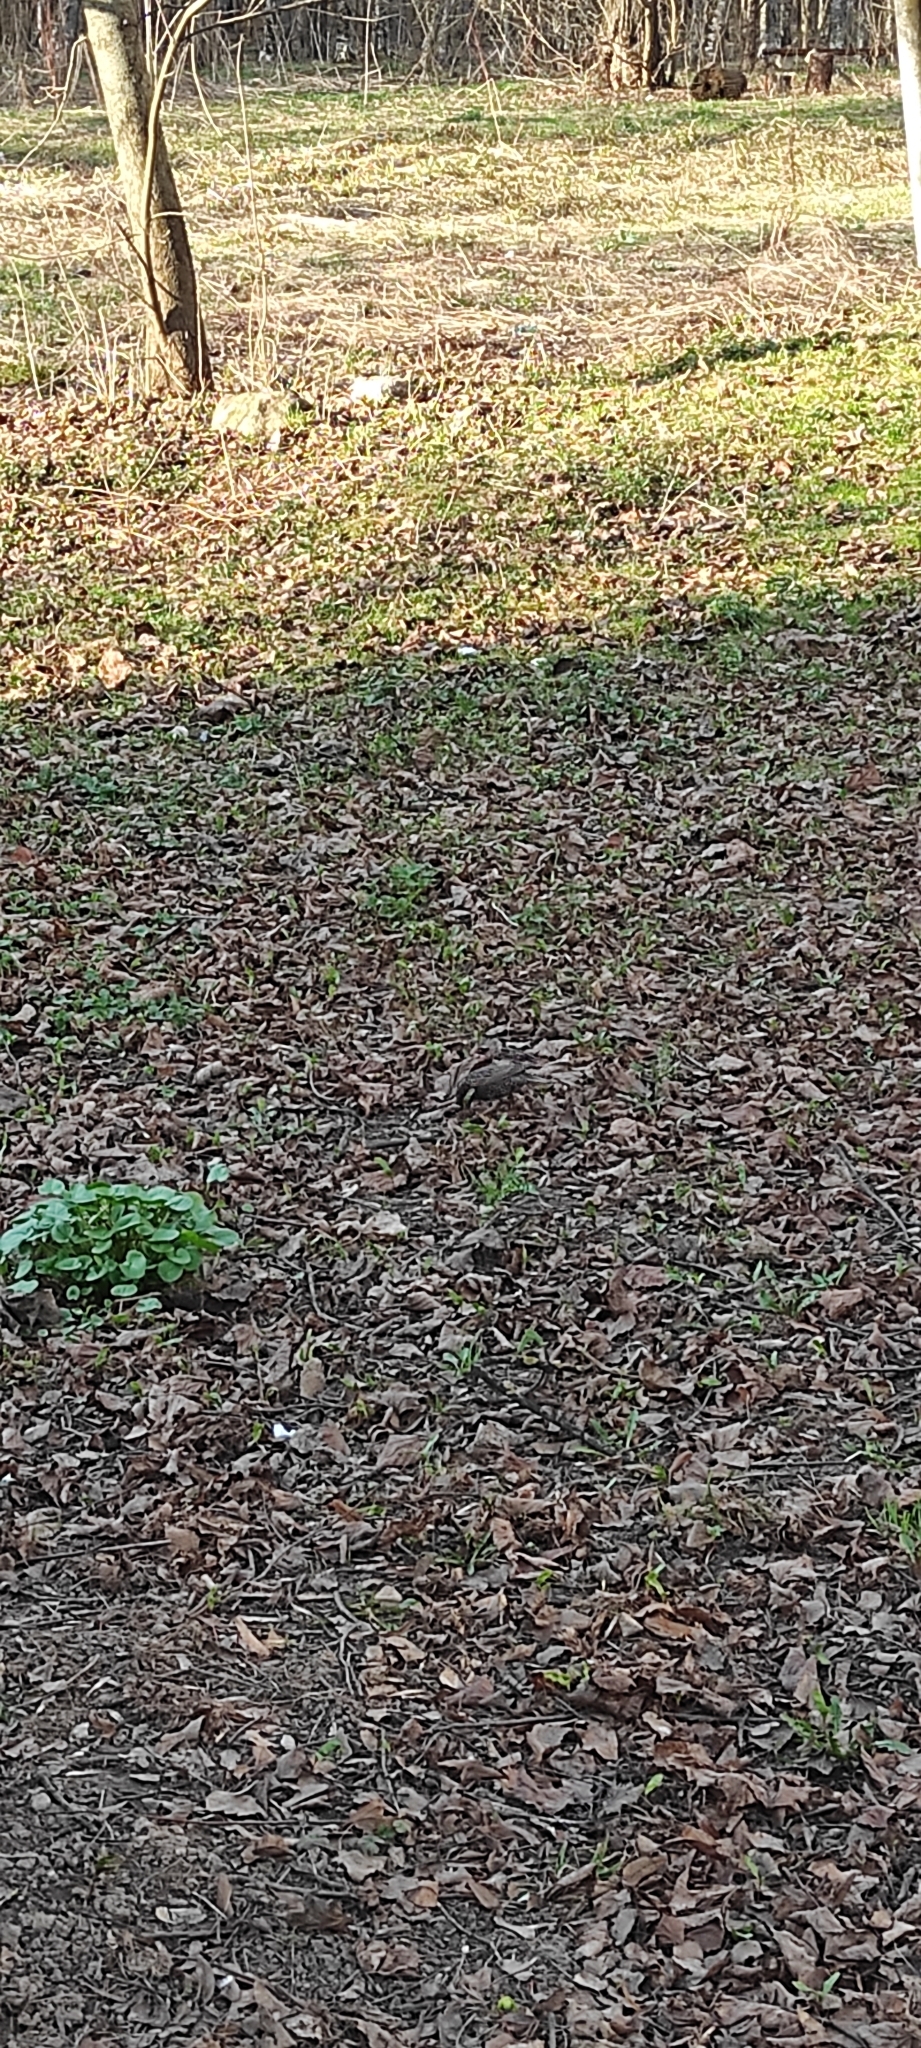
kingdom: Animalia
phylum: Chordata
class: Aves
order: Passeriformes
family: Sturnidae
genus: Sturnus
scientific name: Sturnus vulgaris
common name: Common starling
